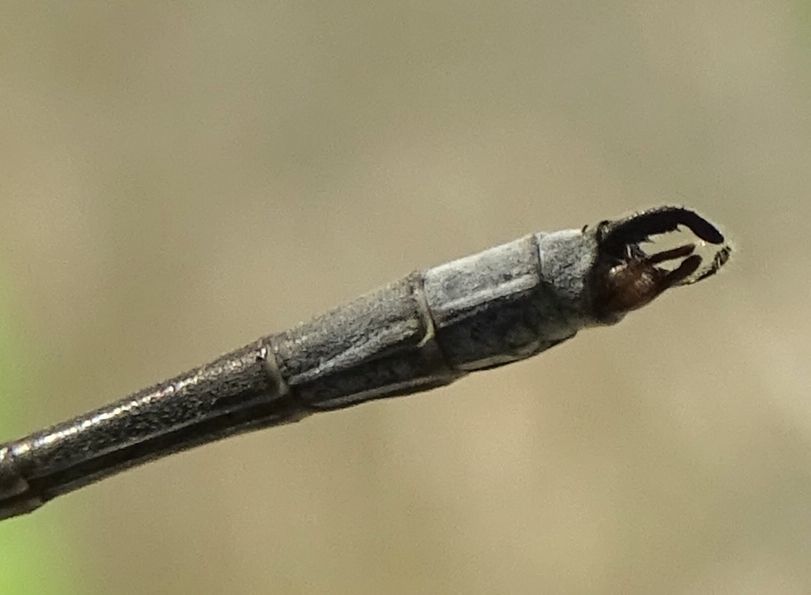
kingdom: Animalia
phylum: Arthropoda
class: Insecta
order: Odonata
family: Lestidae
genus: Lestes
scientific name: Lestes disjunctus
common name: Northern spreadwing
